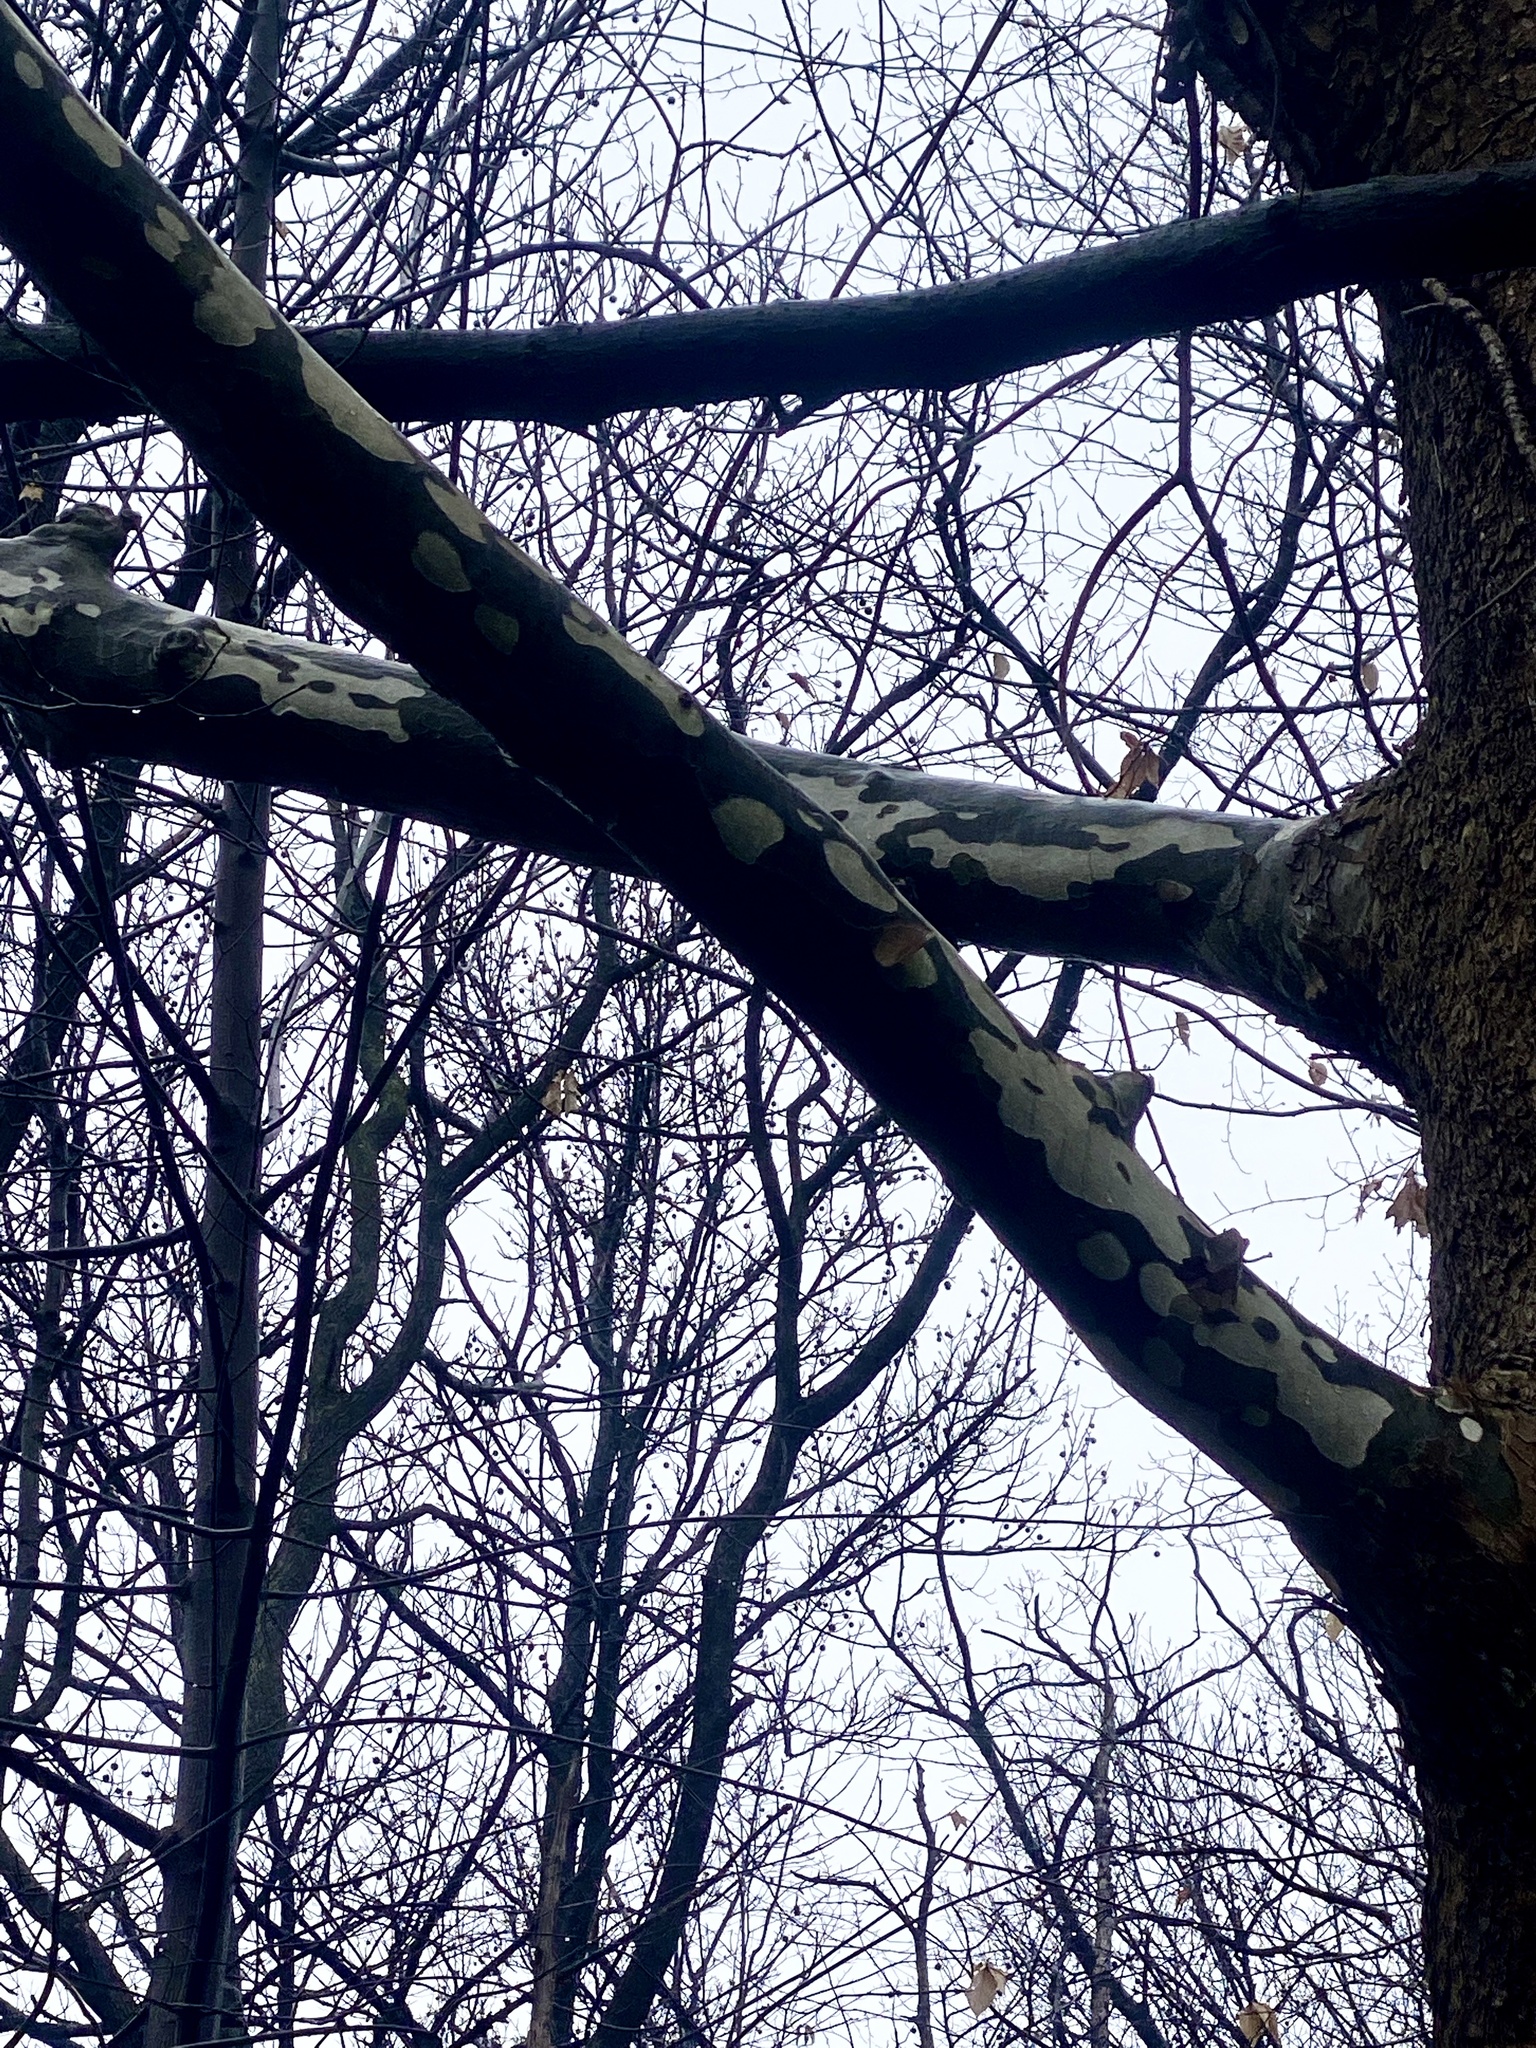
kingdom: Plantae
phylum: Tracheophyta
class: Magnoliopsida
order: Proteales
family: Platanaceae
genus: Platanus
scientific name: Platanus occidentalis
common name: American sycamore
